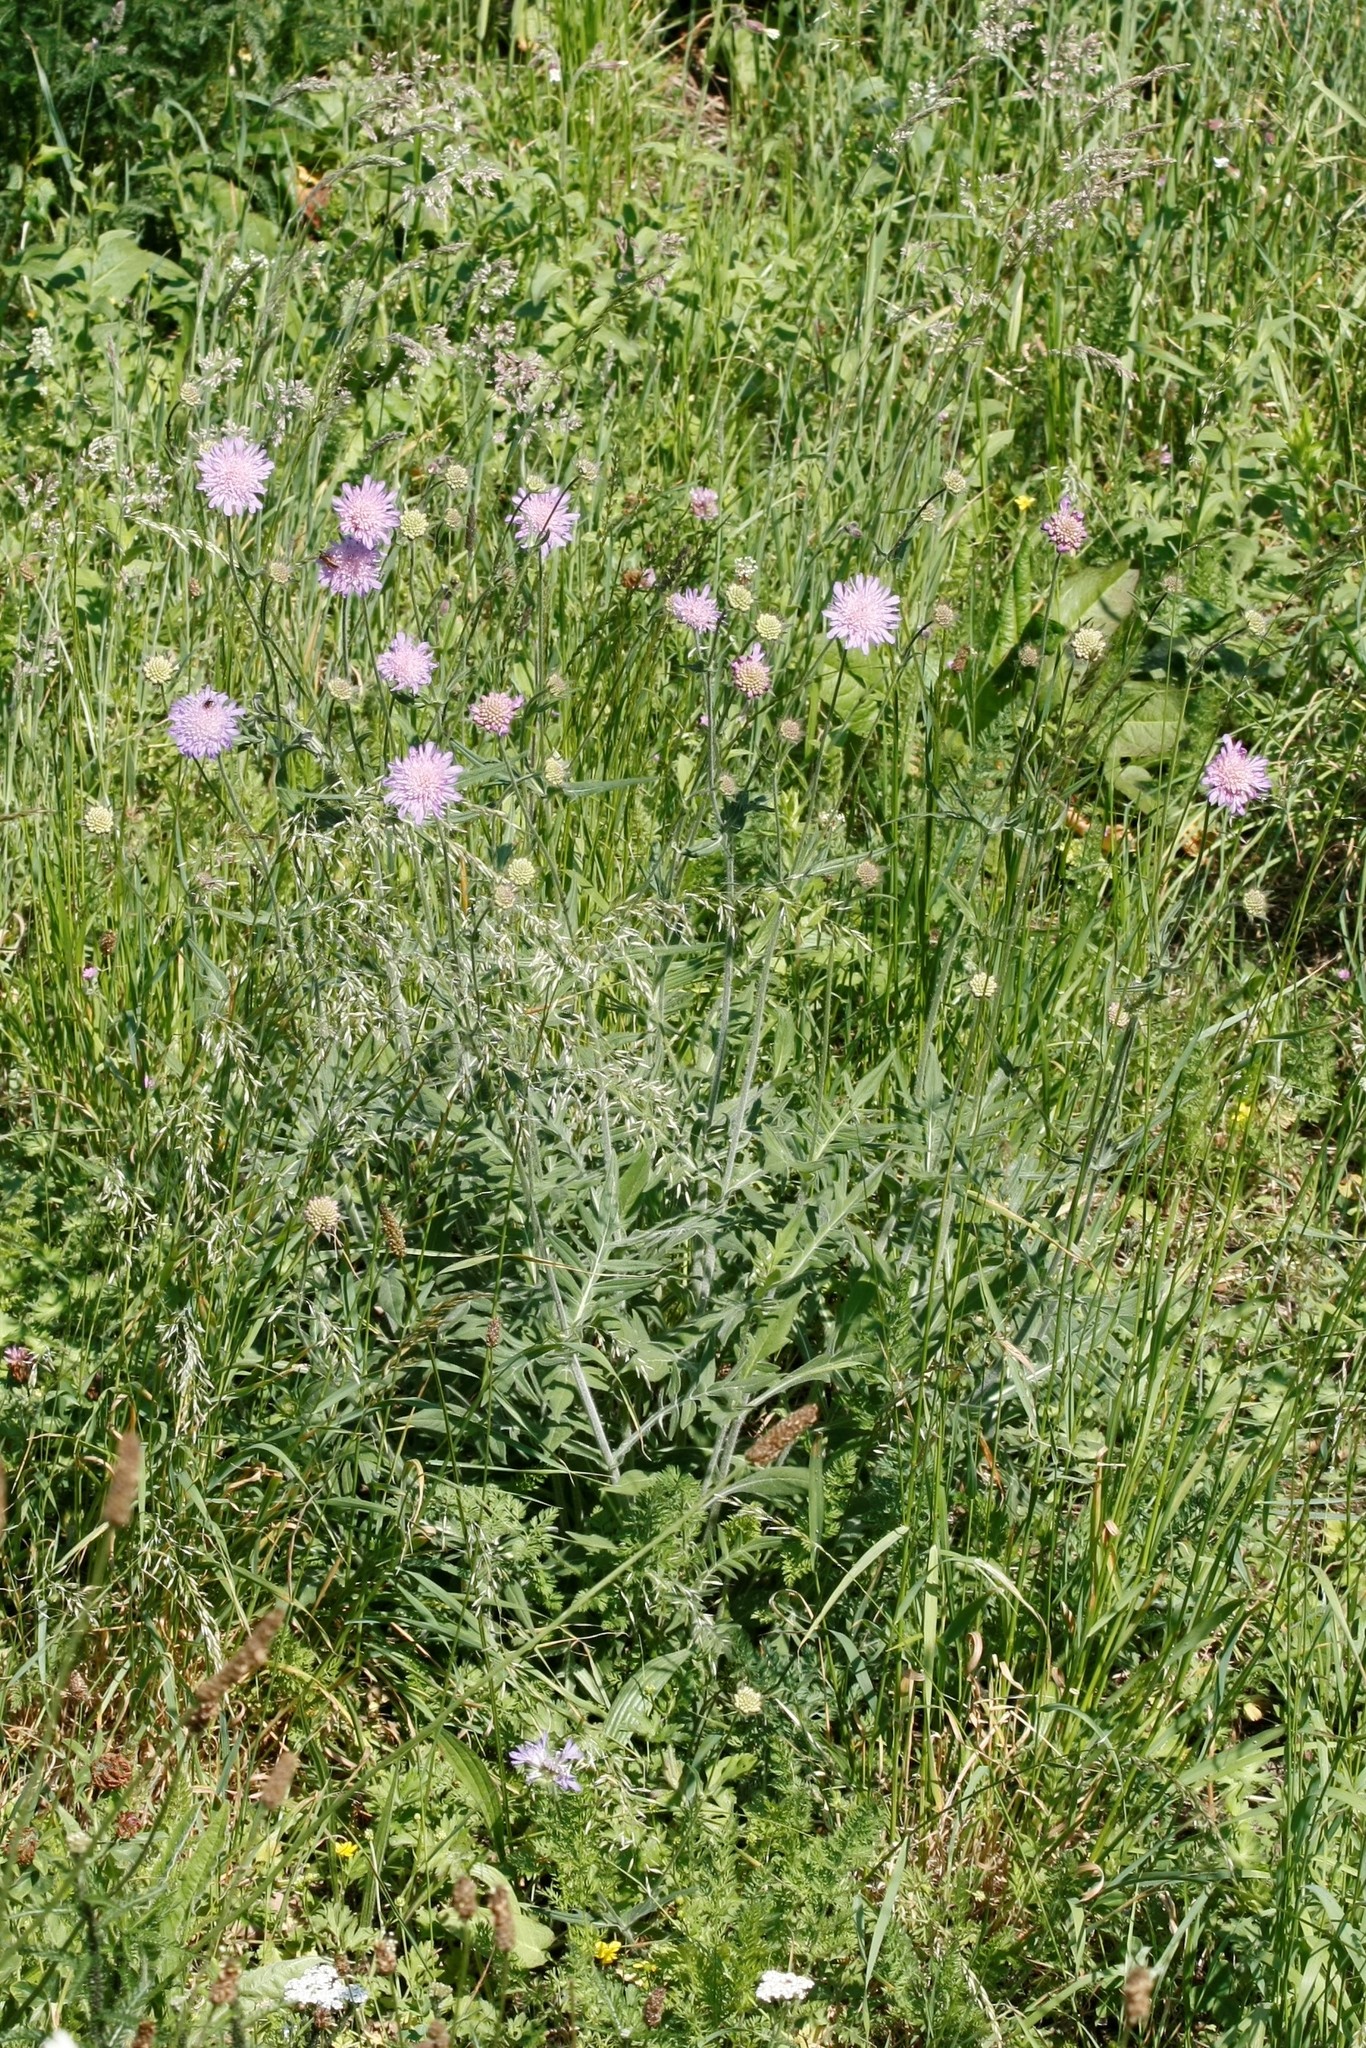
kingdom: Plantae
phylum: Tracheophyta
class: Magnoliopsida
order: Dipsacales
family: Caprifoliaceae
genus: Knautia
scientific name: Knautia arvensis
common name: Field scabiosa
